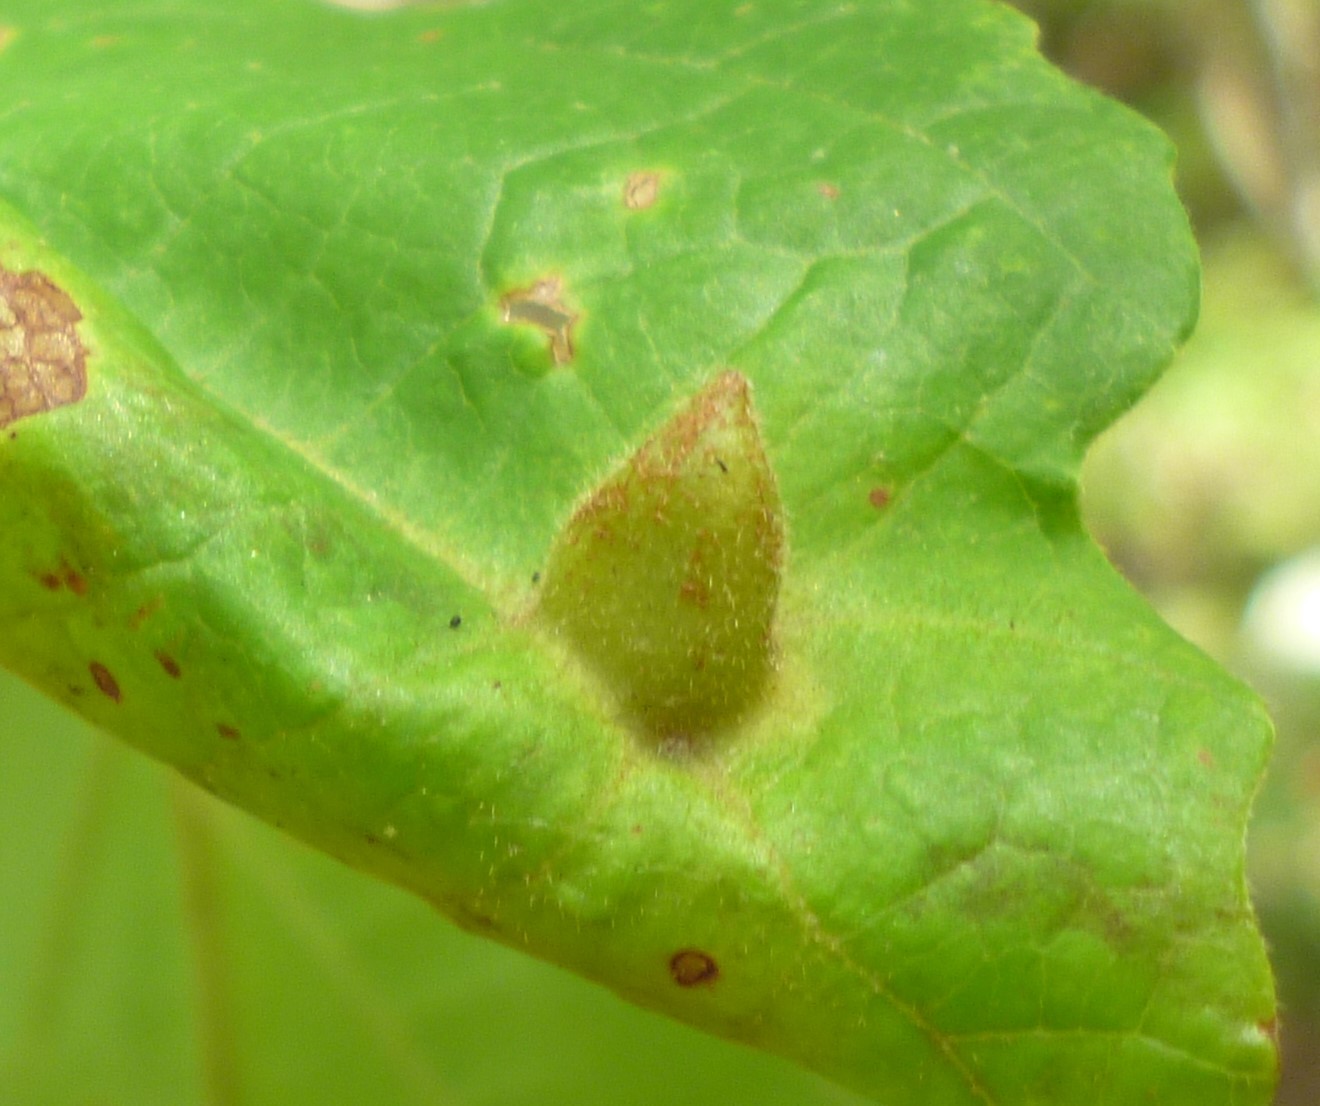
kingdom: Animalia
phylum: Arthropoda
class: Insecta
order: Hemiptera
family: Aphididae
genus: Hormaphis
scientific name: Hormaphis hamamelidis
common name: Witch-hazel cone gall aphid
